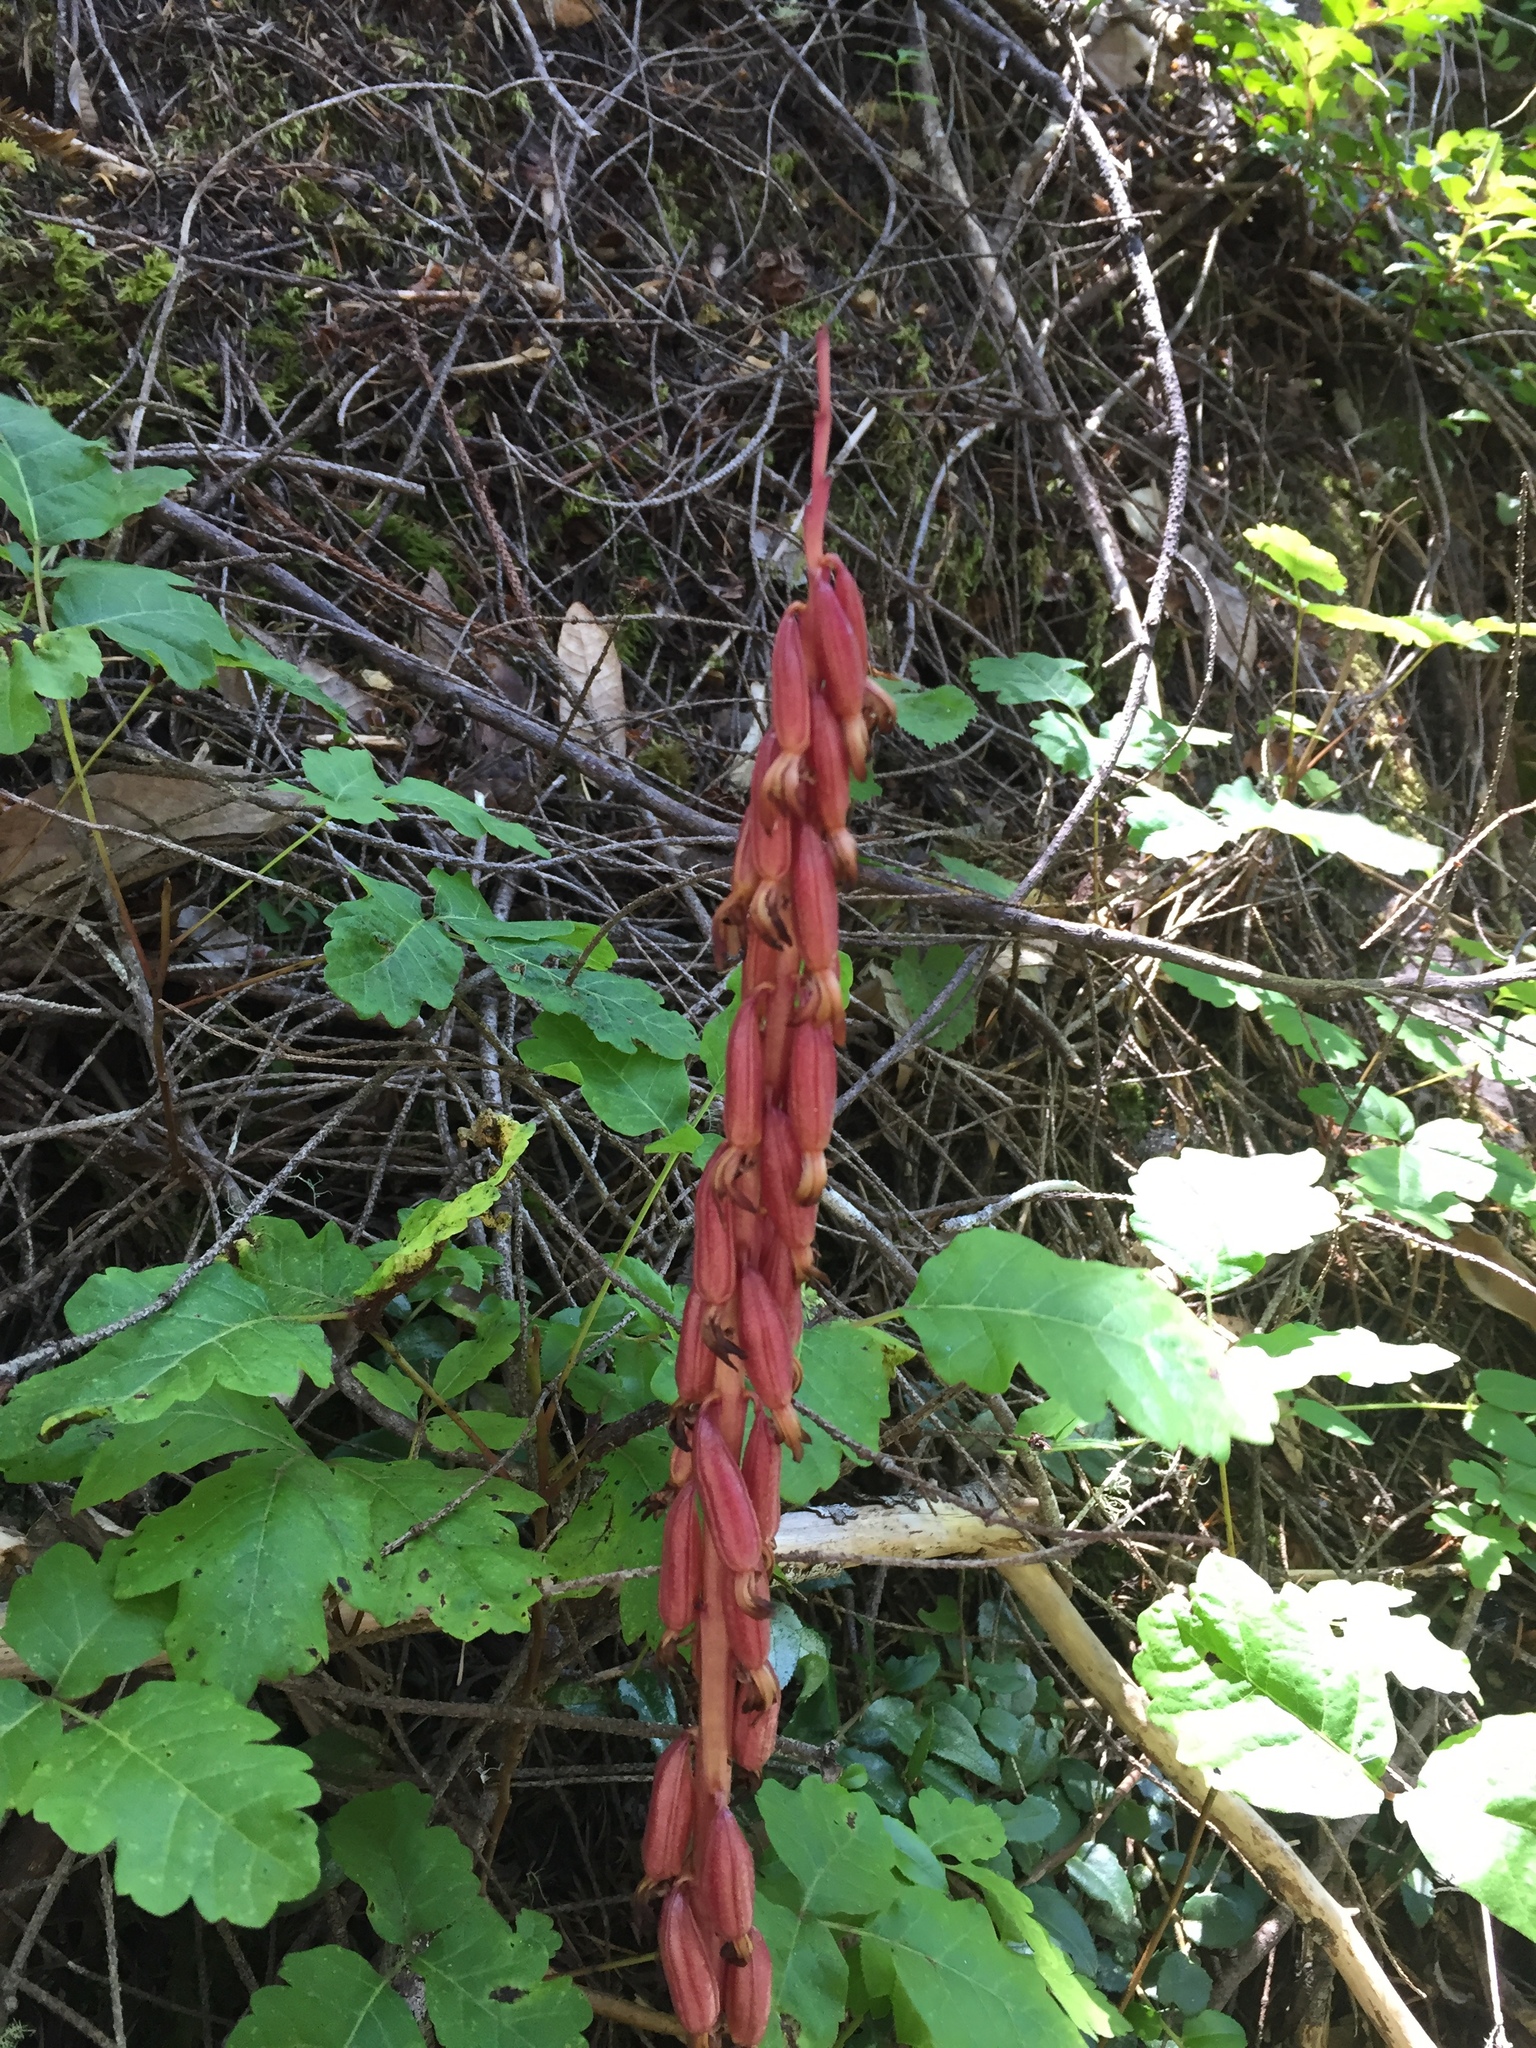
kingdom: Plantae
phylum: Tracheophyta
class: Liliopsida
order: Asparagales
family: Orchidaceae
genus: Corallorhiza
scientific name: Corallorhiza maculata
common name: Spotted coralroot
